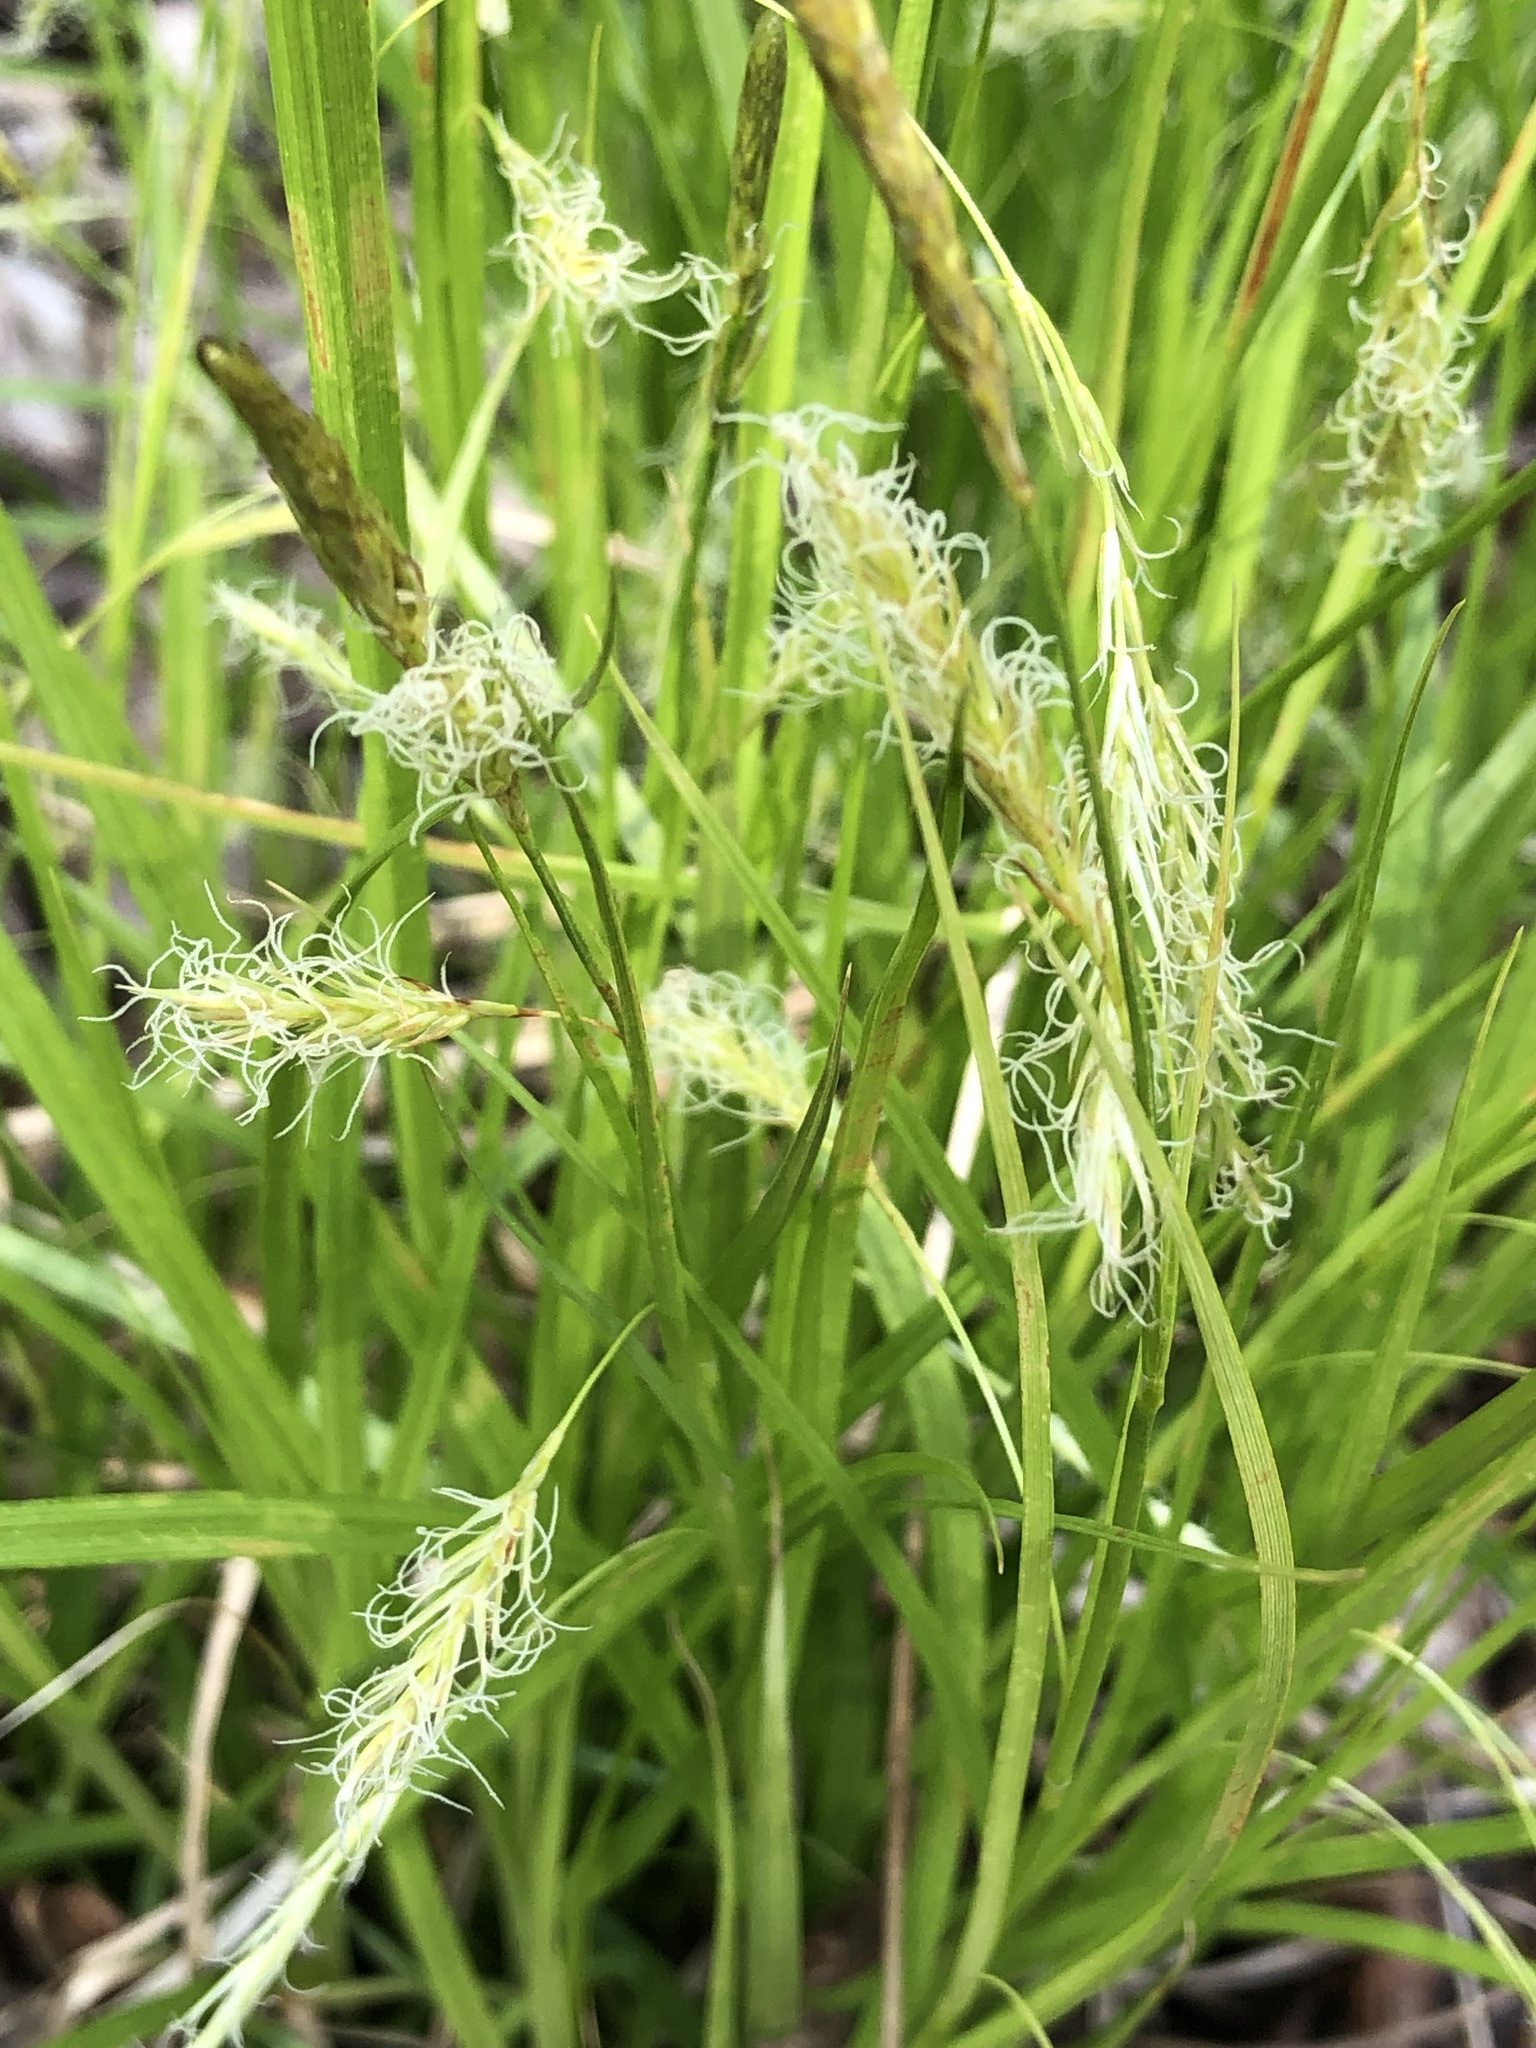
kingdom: Plantae
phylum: Tracheophyta
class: Liliopsida
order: Poales
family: Cyperaceae
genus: Carex
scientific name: Carex sprengelii
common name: Long-beaked sedge
